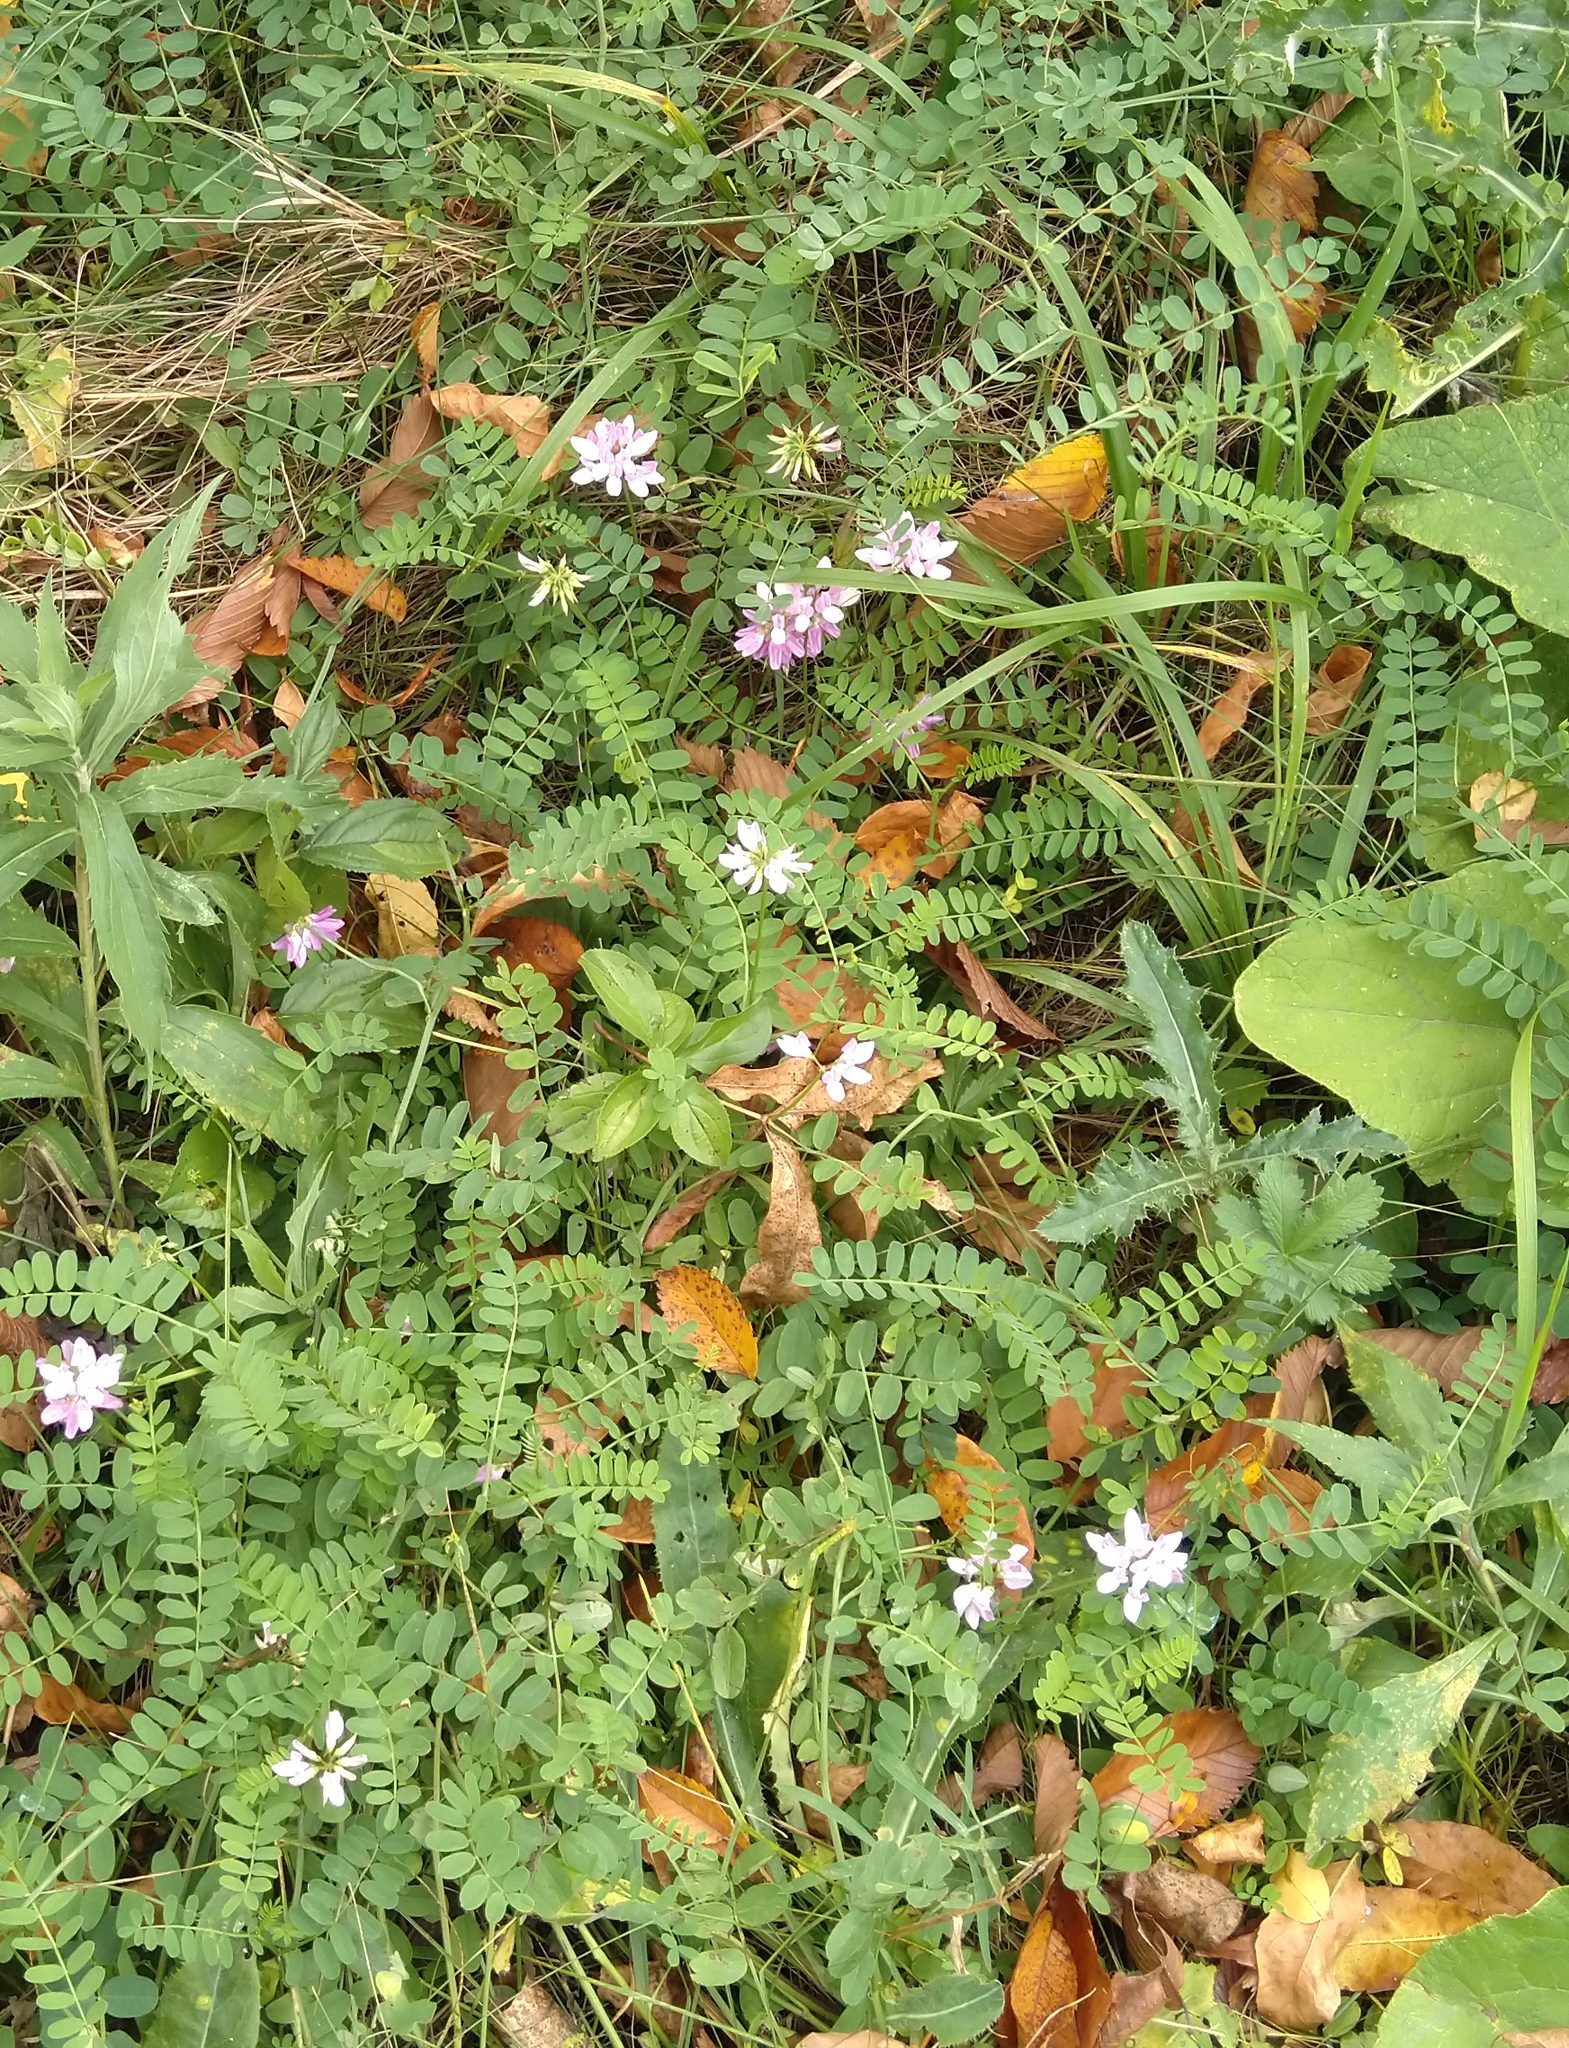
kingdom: Plantae
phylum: Tracheophyta
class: Magnoliopsida
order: Fabales
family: Fabaceae
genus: Coronilla
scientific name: Coronilla varia
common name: Crownvetch
